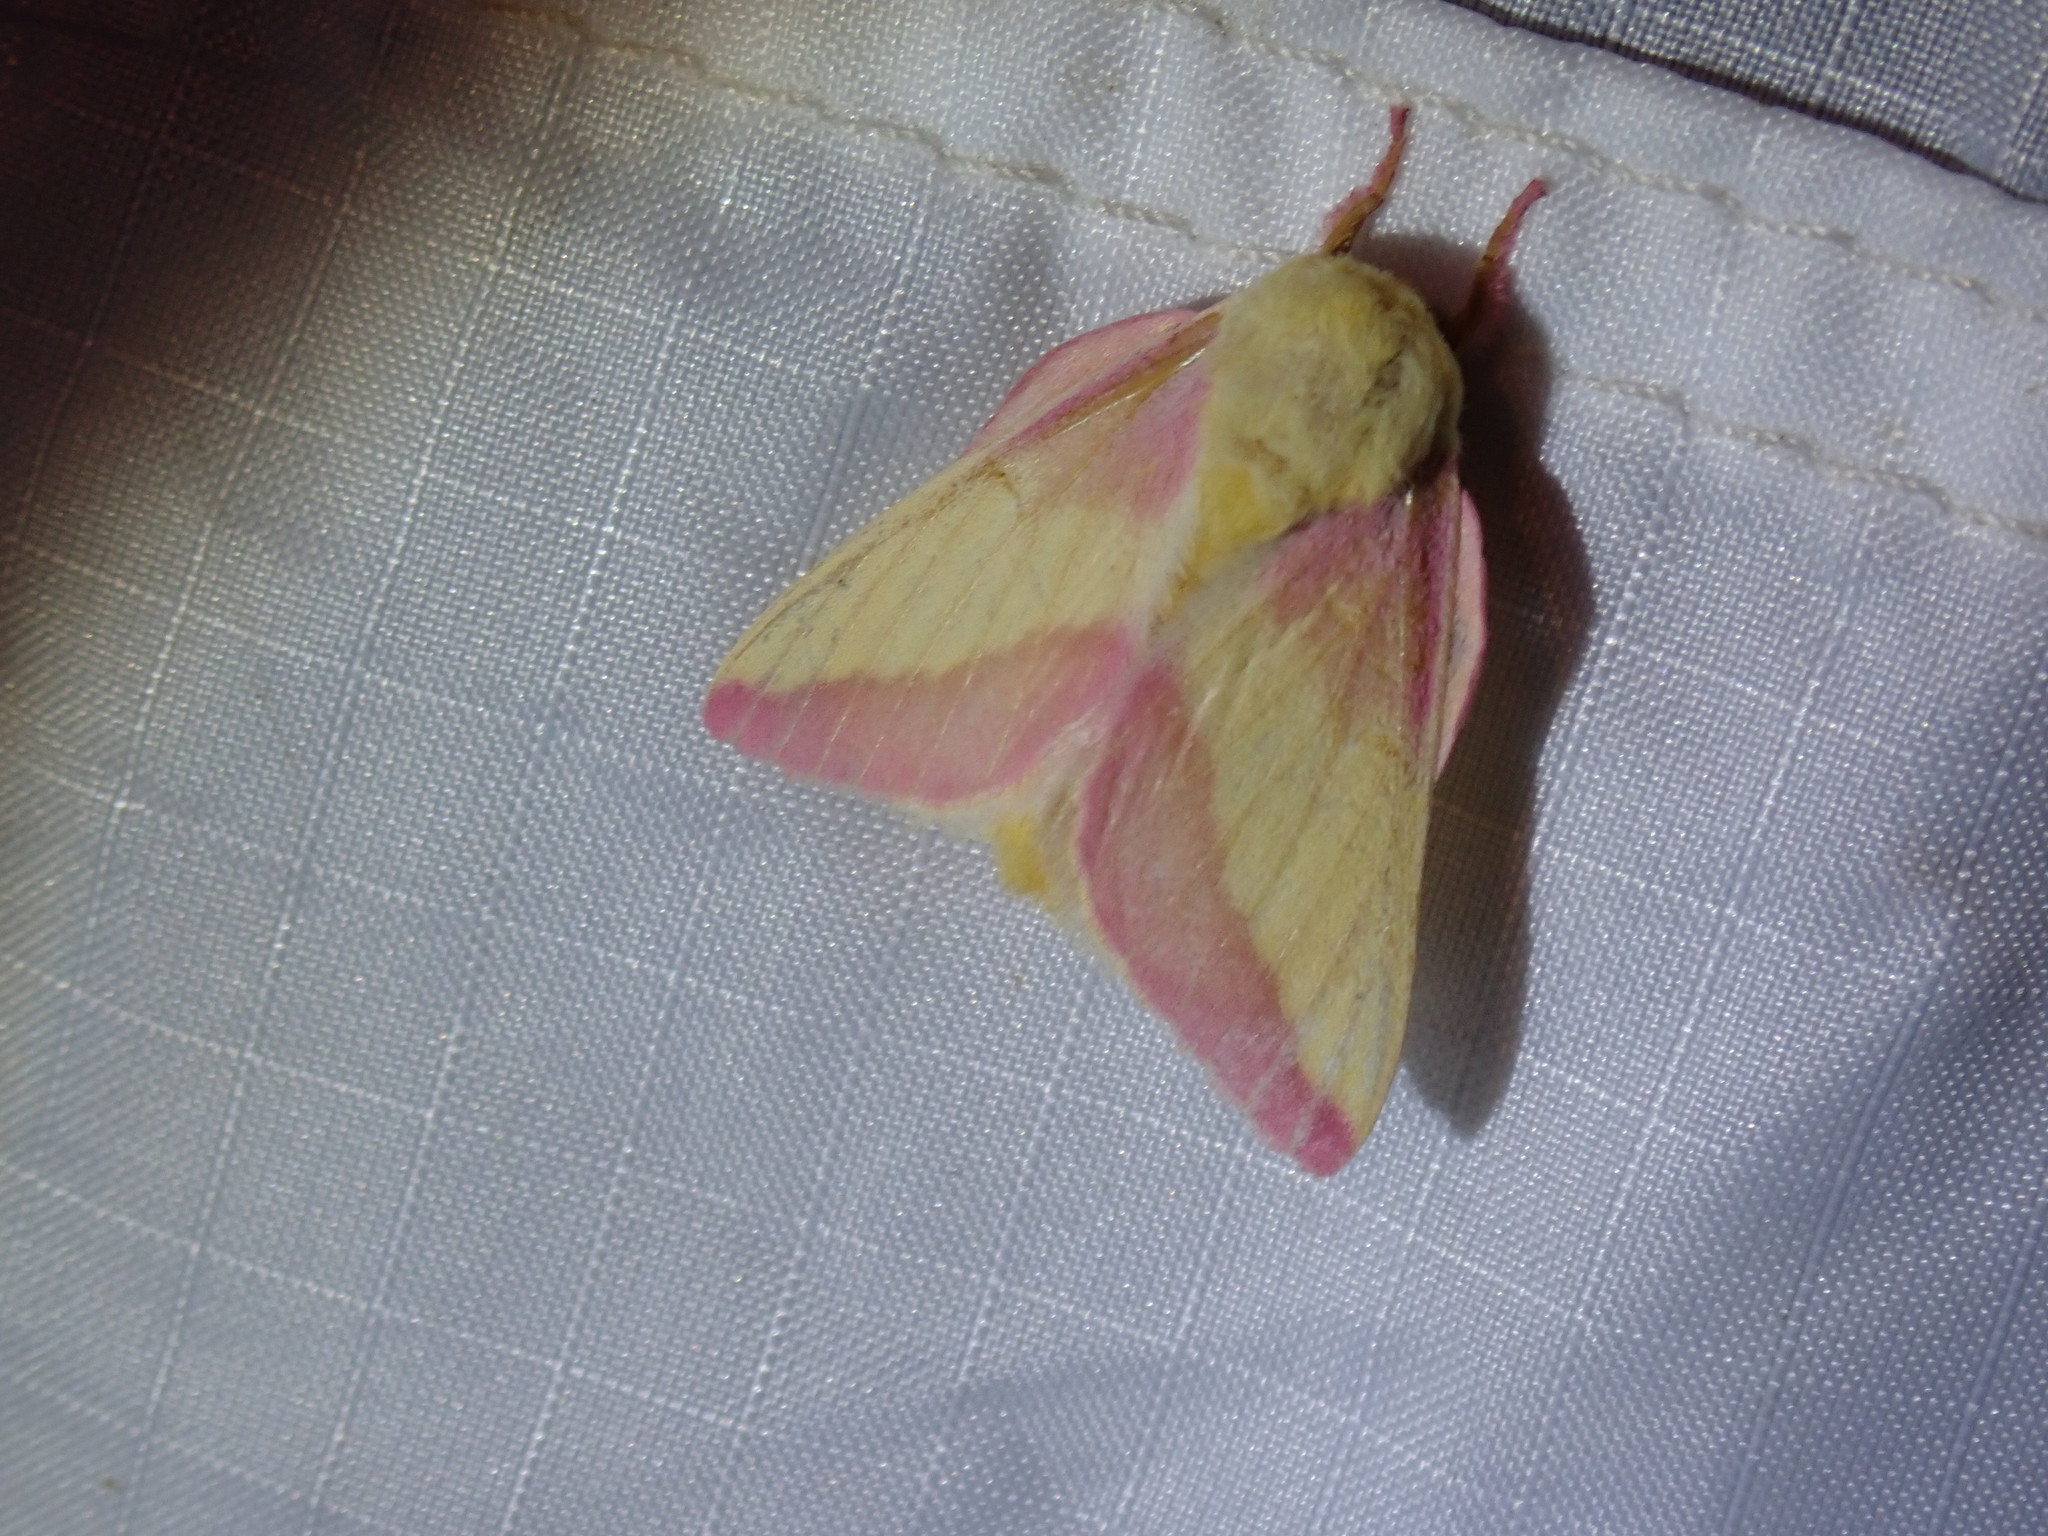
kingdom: Animalia
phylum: Arthropoda
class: Insecta
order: Lepidoptera
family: Saturniidae
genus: Dryocampa
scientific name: Dryocampa rubicunda
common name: Rosy maple moth
